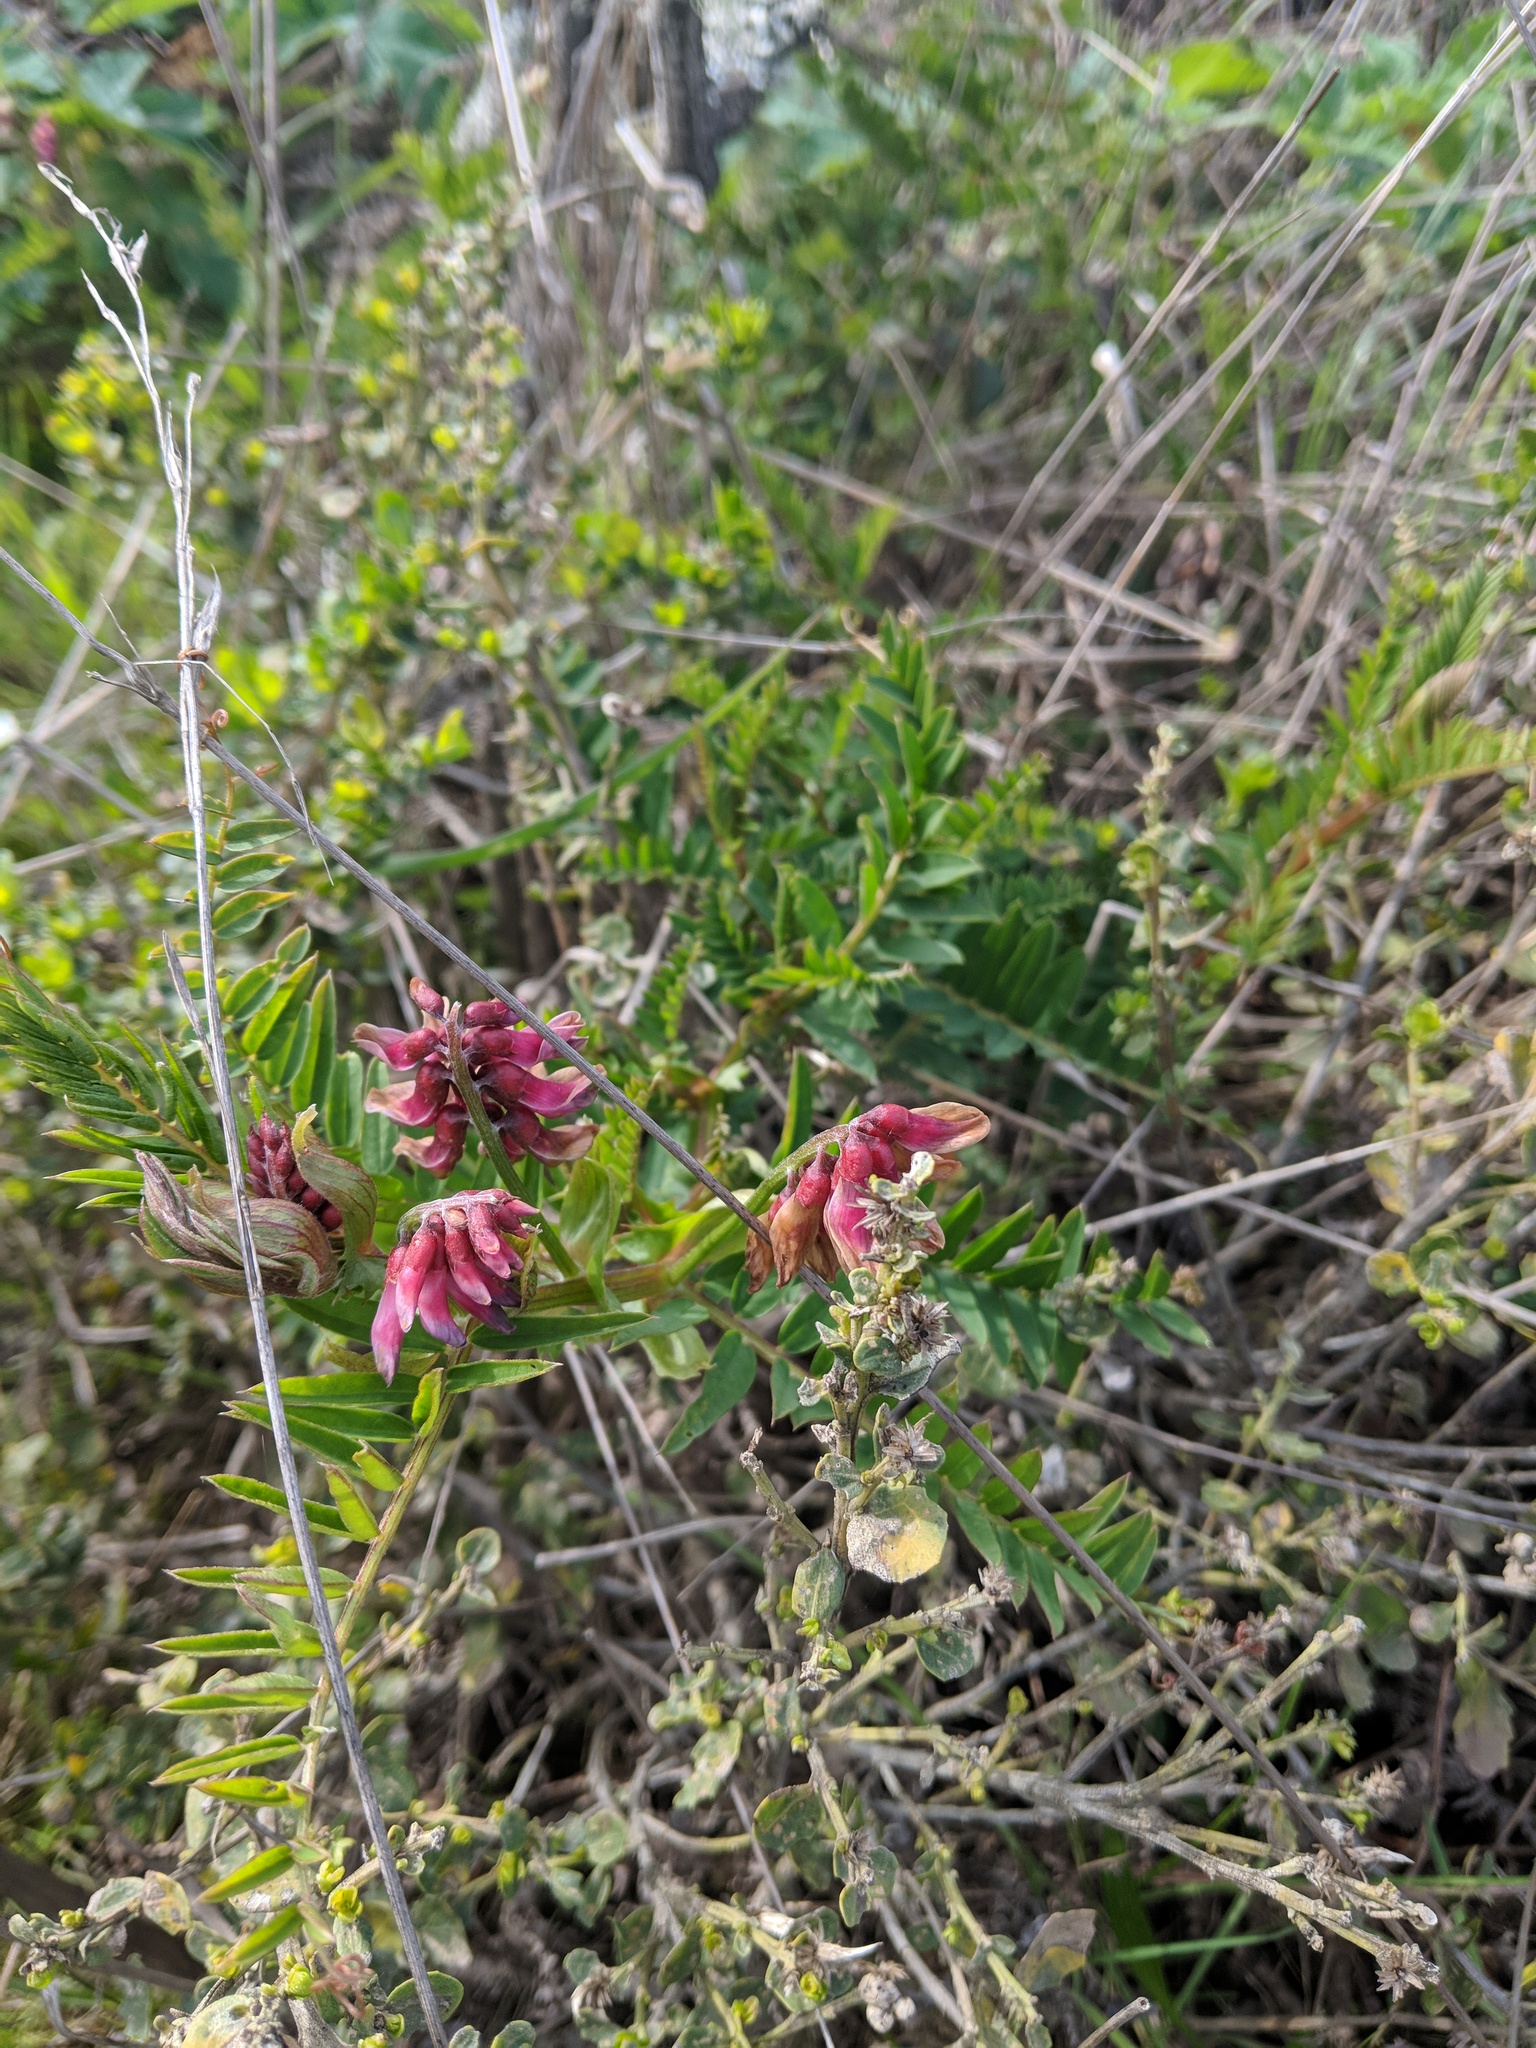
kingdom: Plantae
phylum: Tracheophyta
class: Magnoliopsida
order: Fabales
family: Fabaceae
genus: Vicia
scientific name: Vicia
